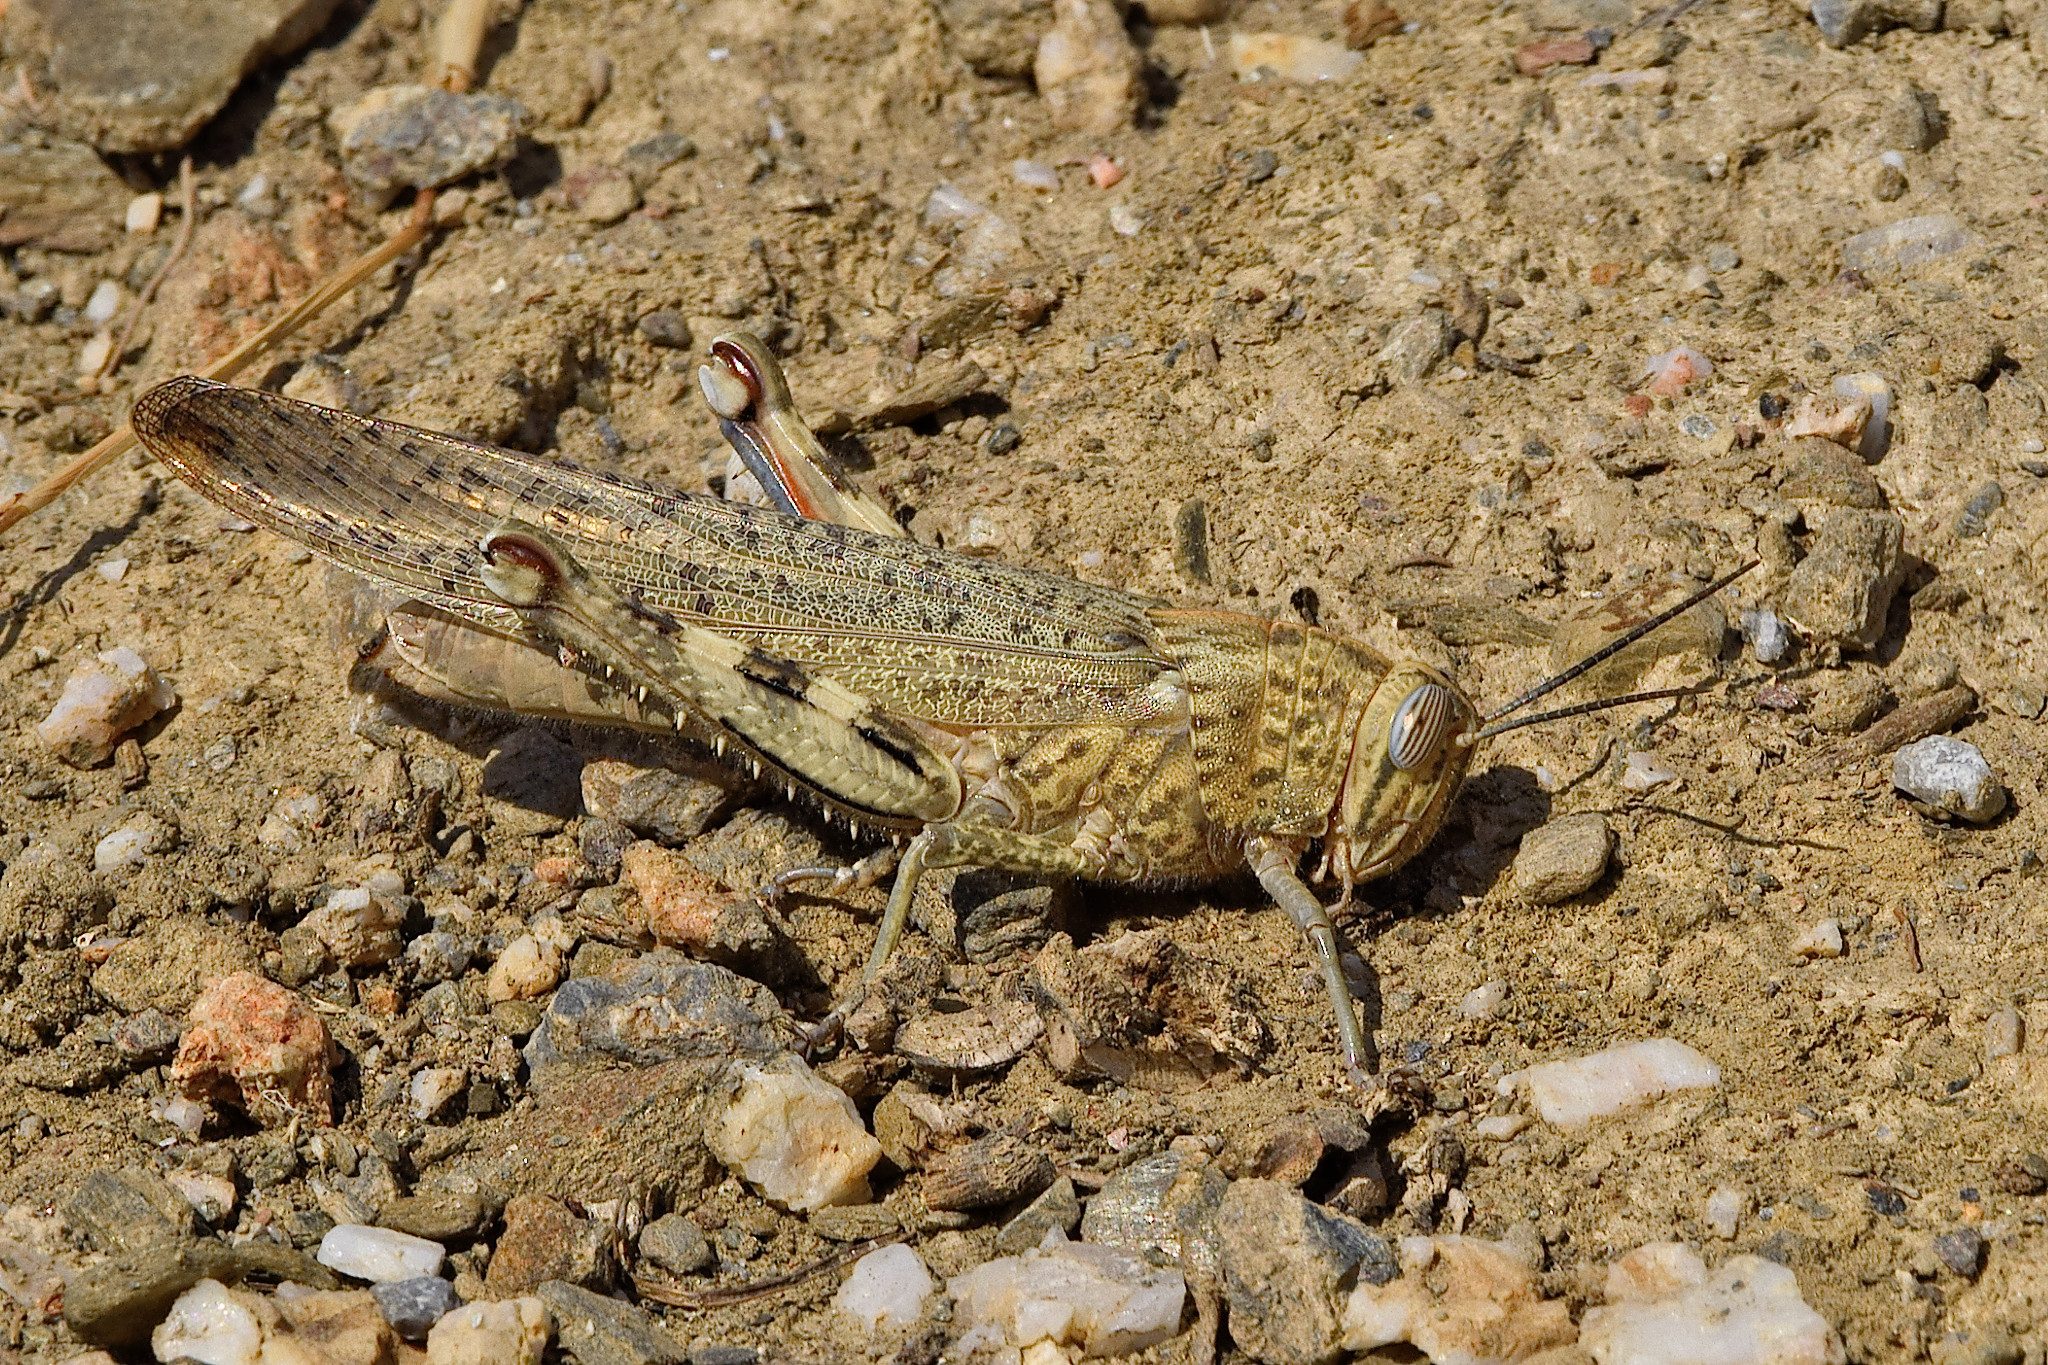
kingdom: Animalia
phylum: Arthropoda
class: Insecta
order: Orthoptera
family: Acrididae
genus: Anacridium
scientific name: Anacridium aegyptium
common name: Egyptian grasshopper
